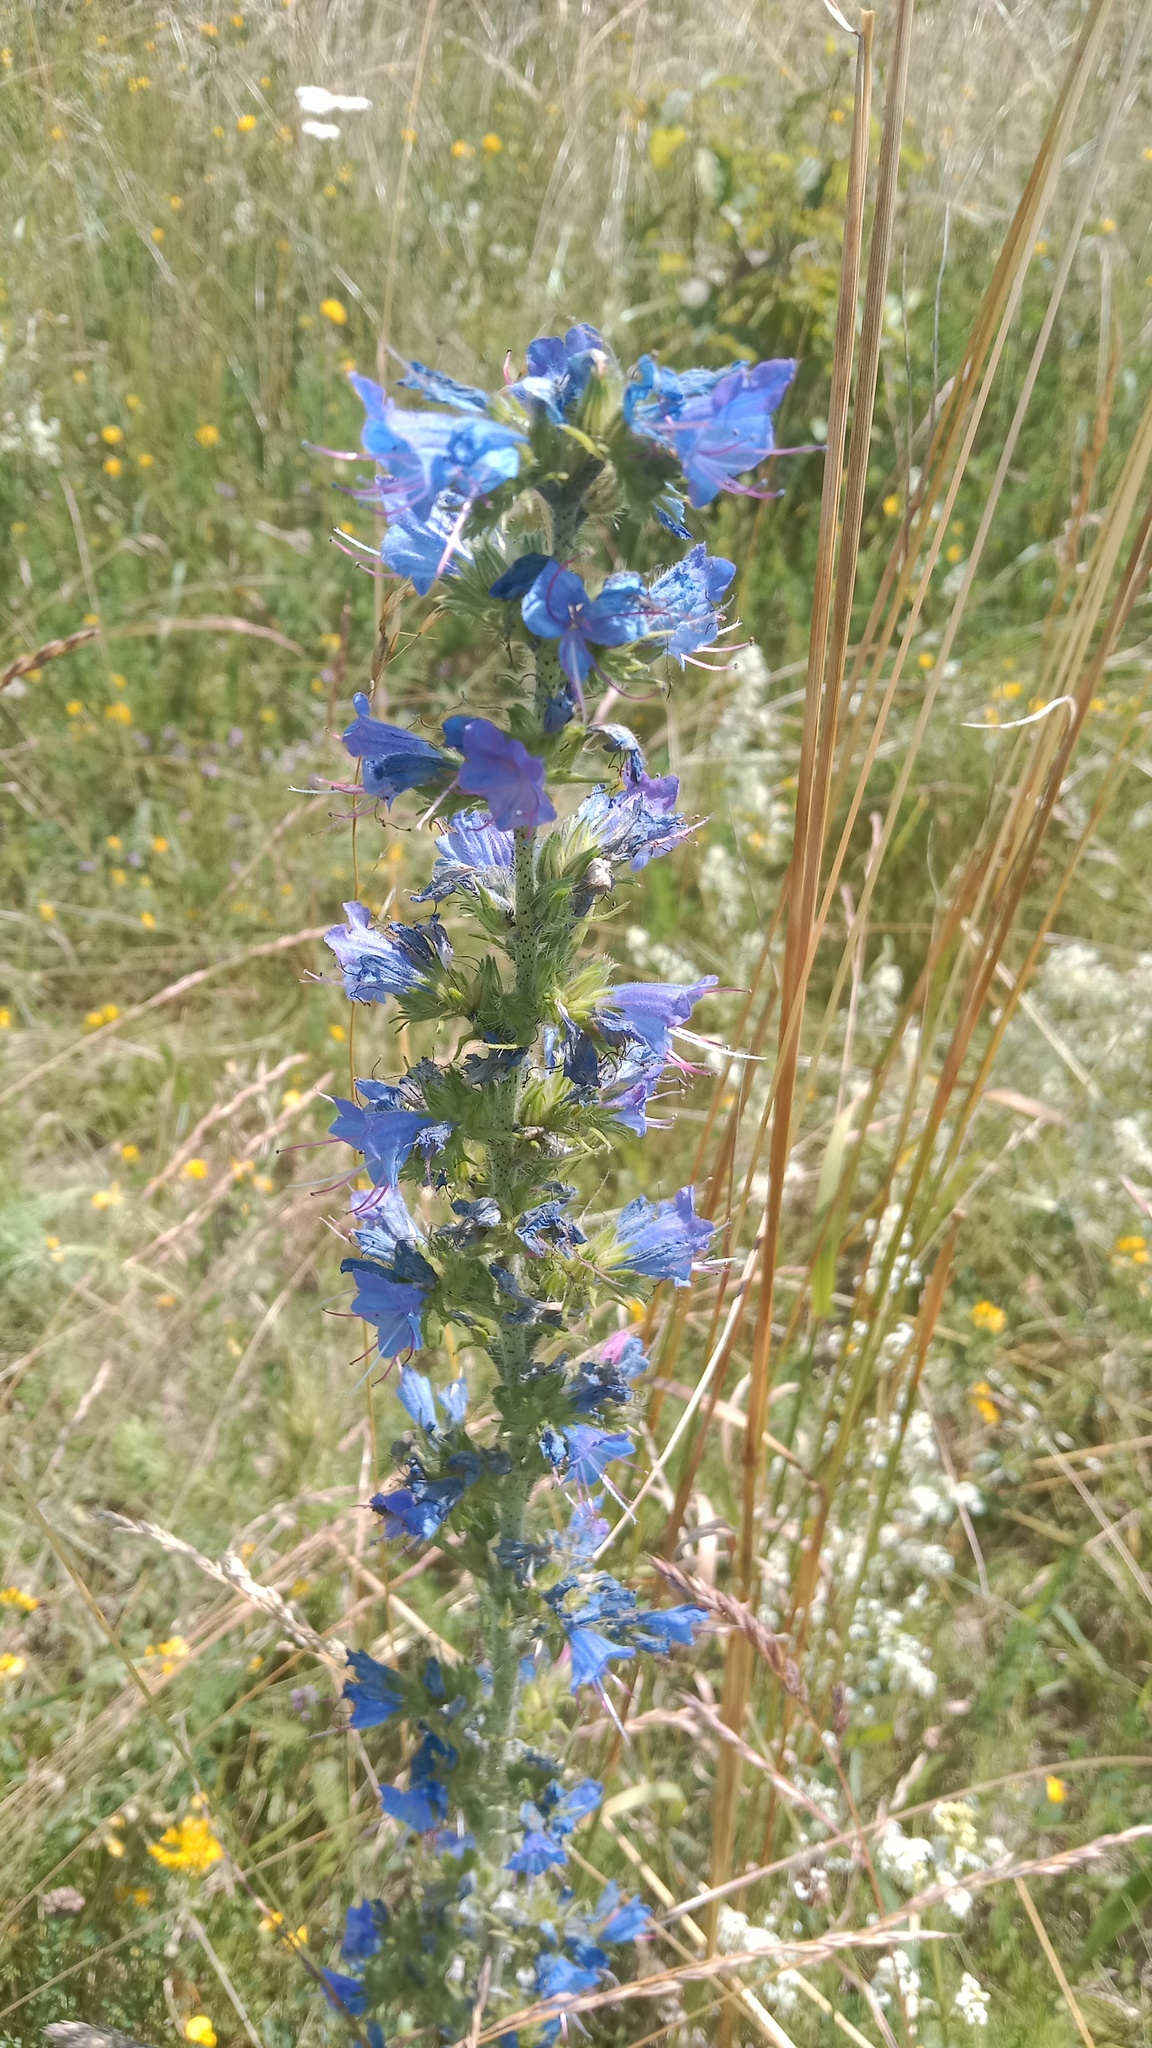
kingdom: Plantae
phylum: Tracheophyta
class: Magnoliopsida
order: Boraginales
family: Boraginaceae
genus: Echium
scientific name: Echium vulgare
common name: Common viper's bugloss
